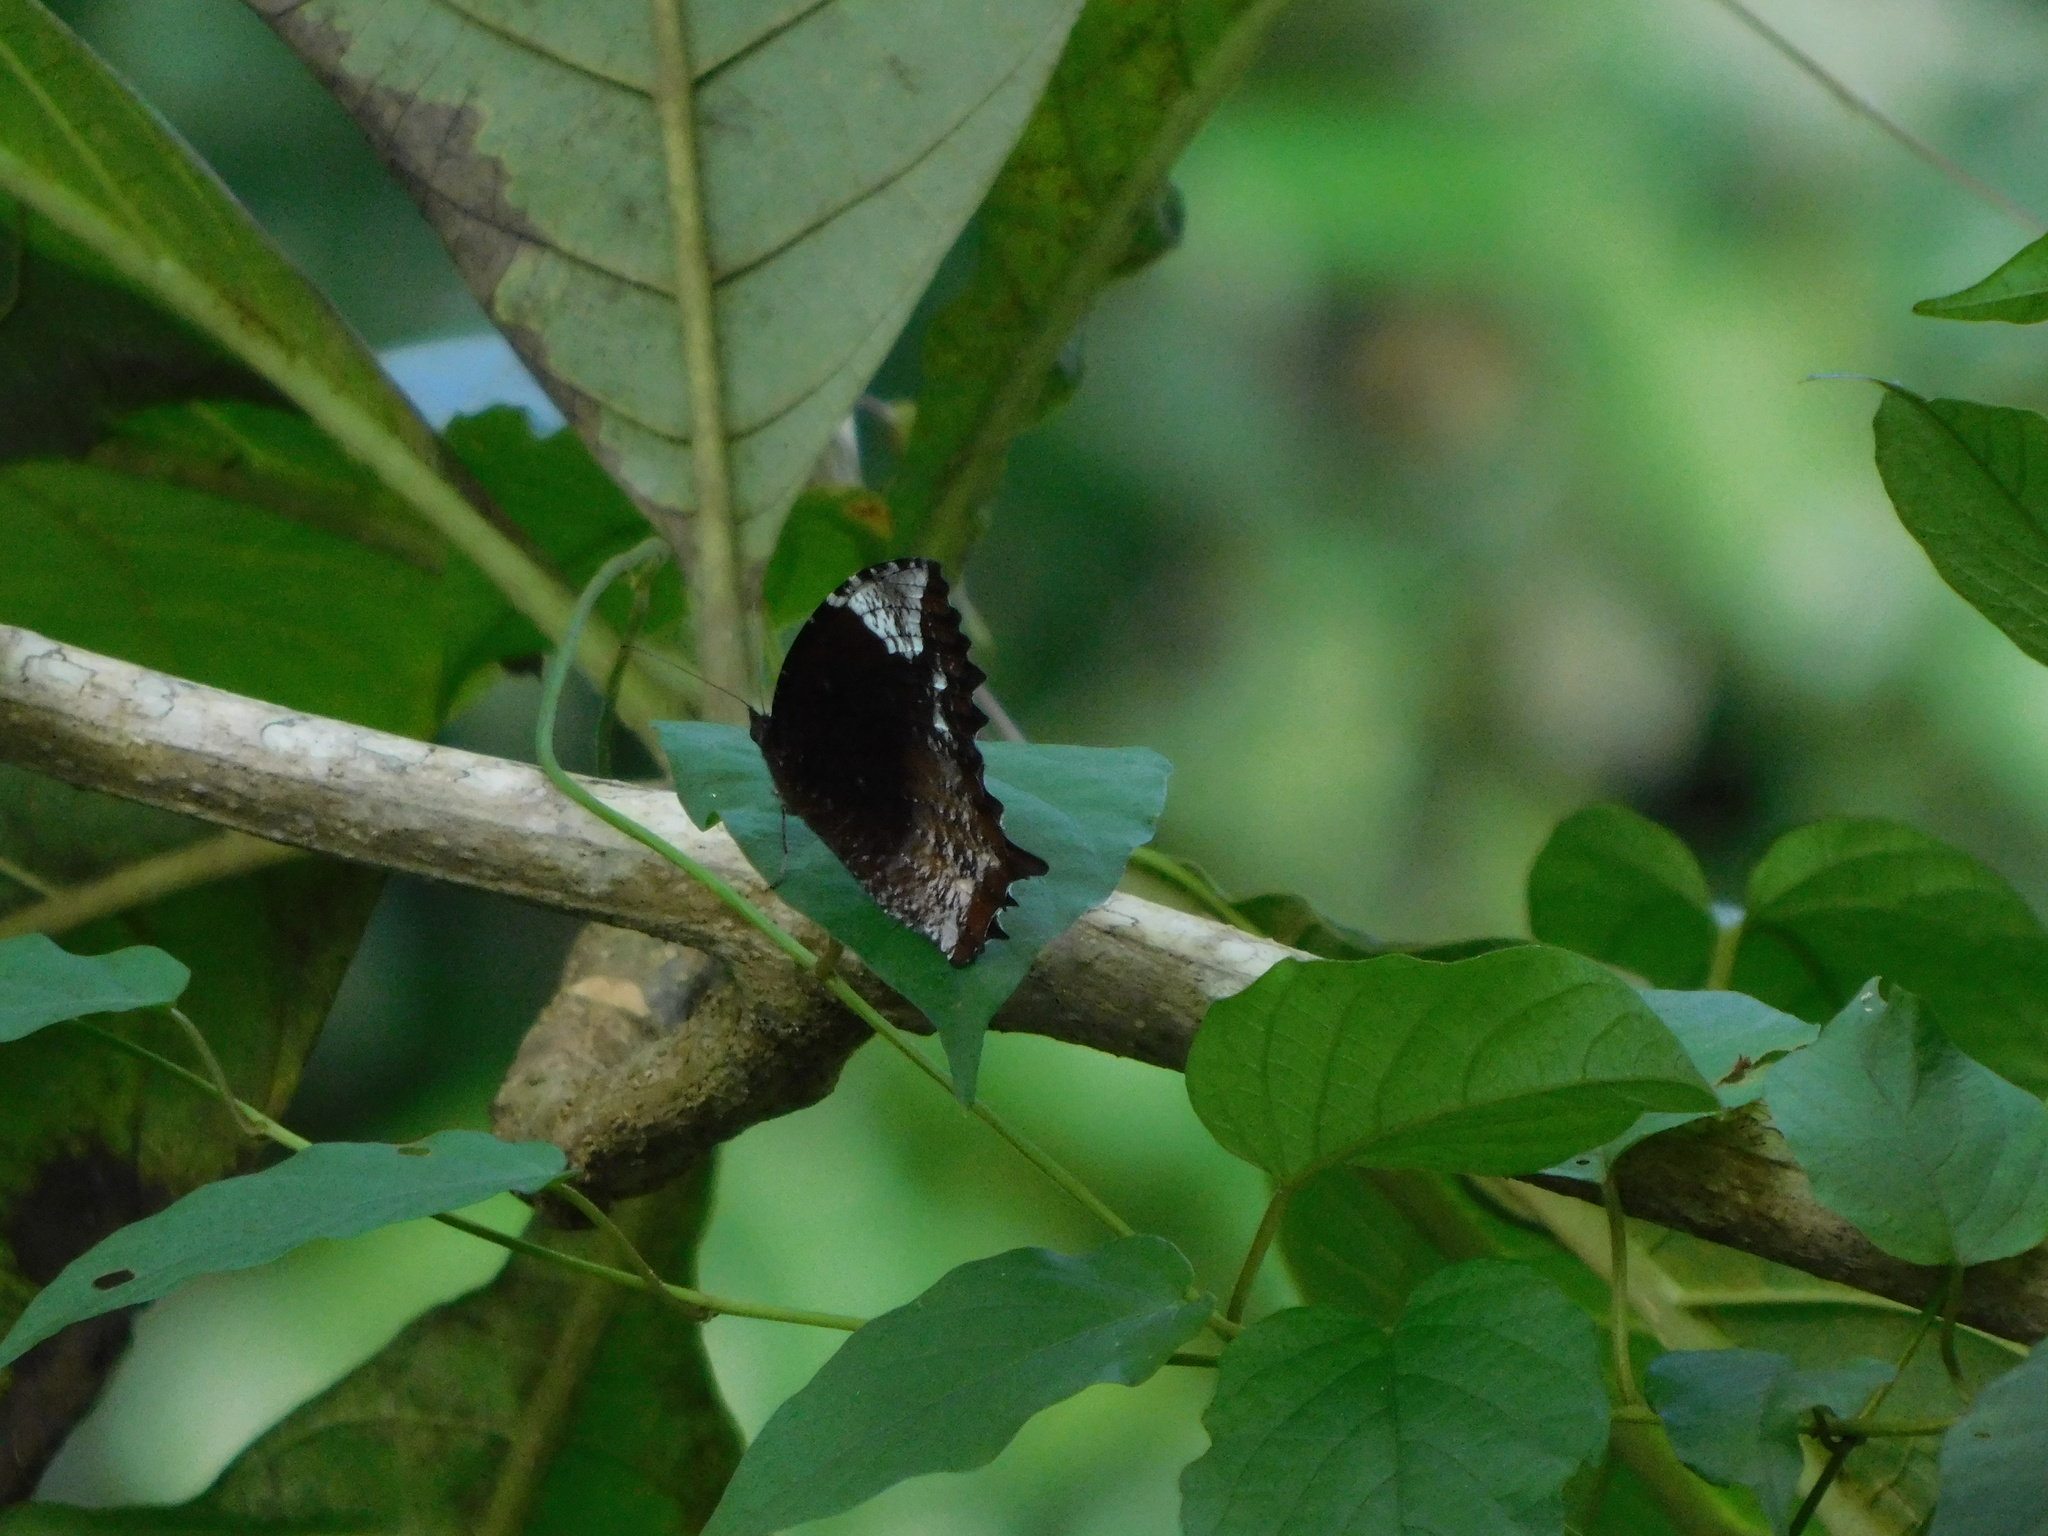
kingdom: Animalia
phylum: Arthropoda
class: Insecta
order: Lepidoptera
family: Nymphalidae
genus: Elymnias
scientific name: Elymnias caudata
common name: Tailed palmfly
